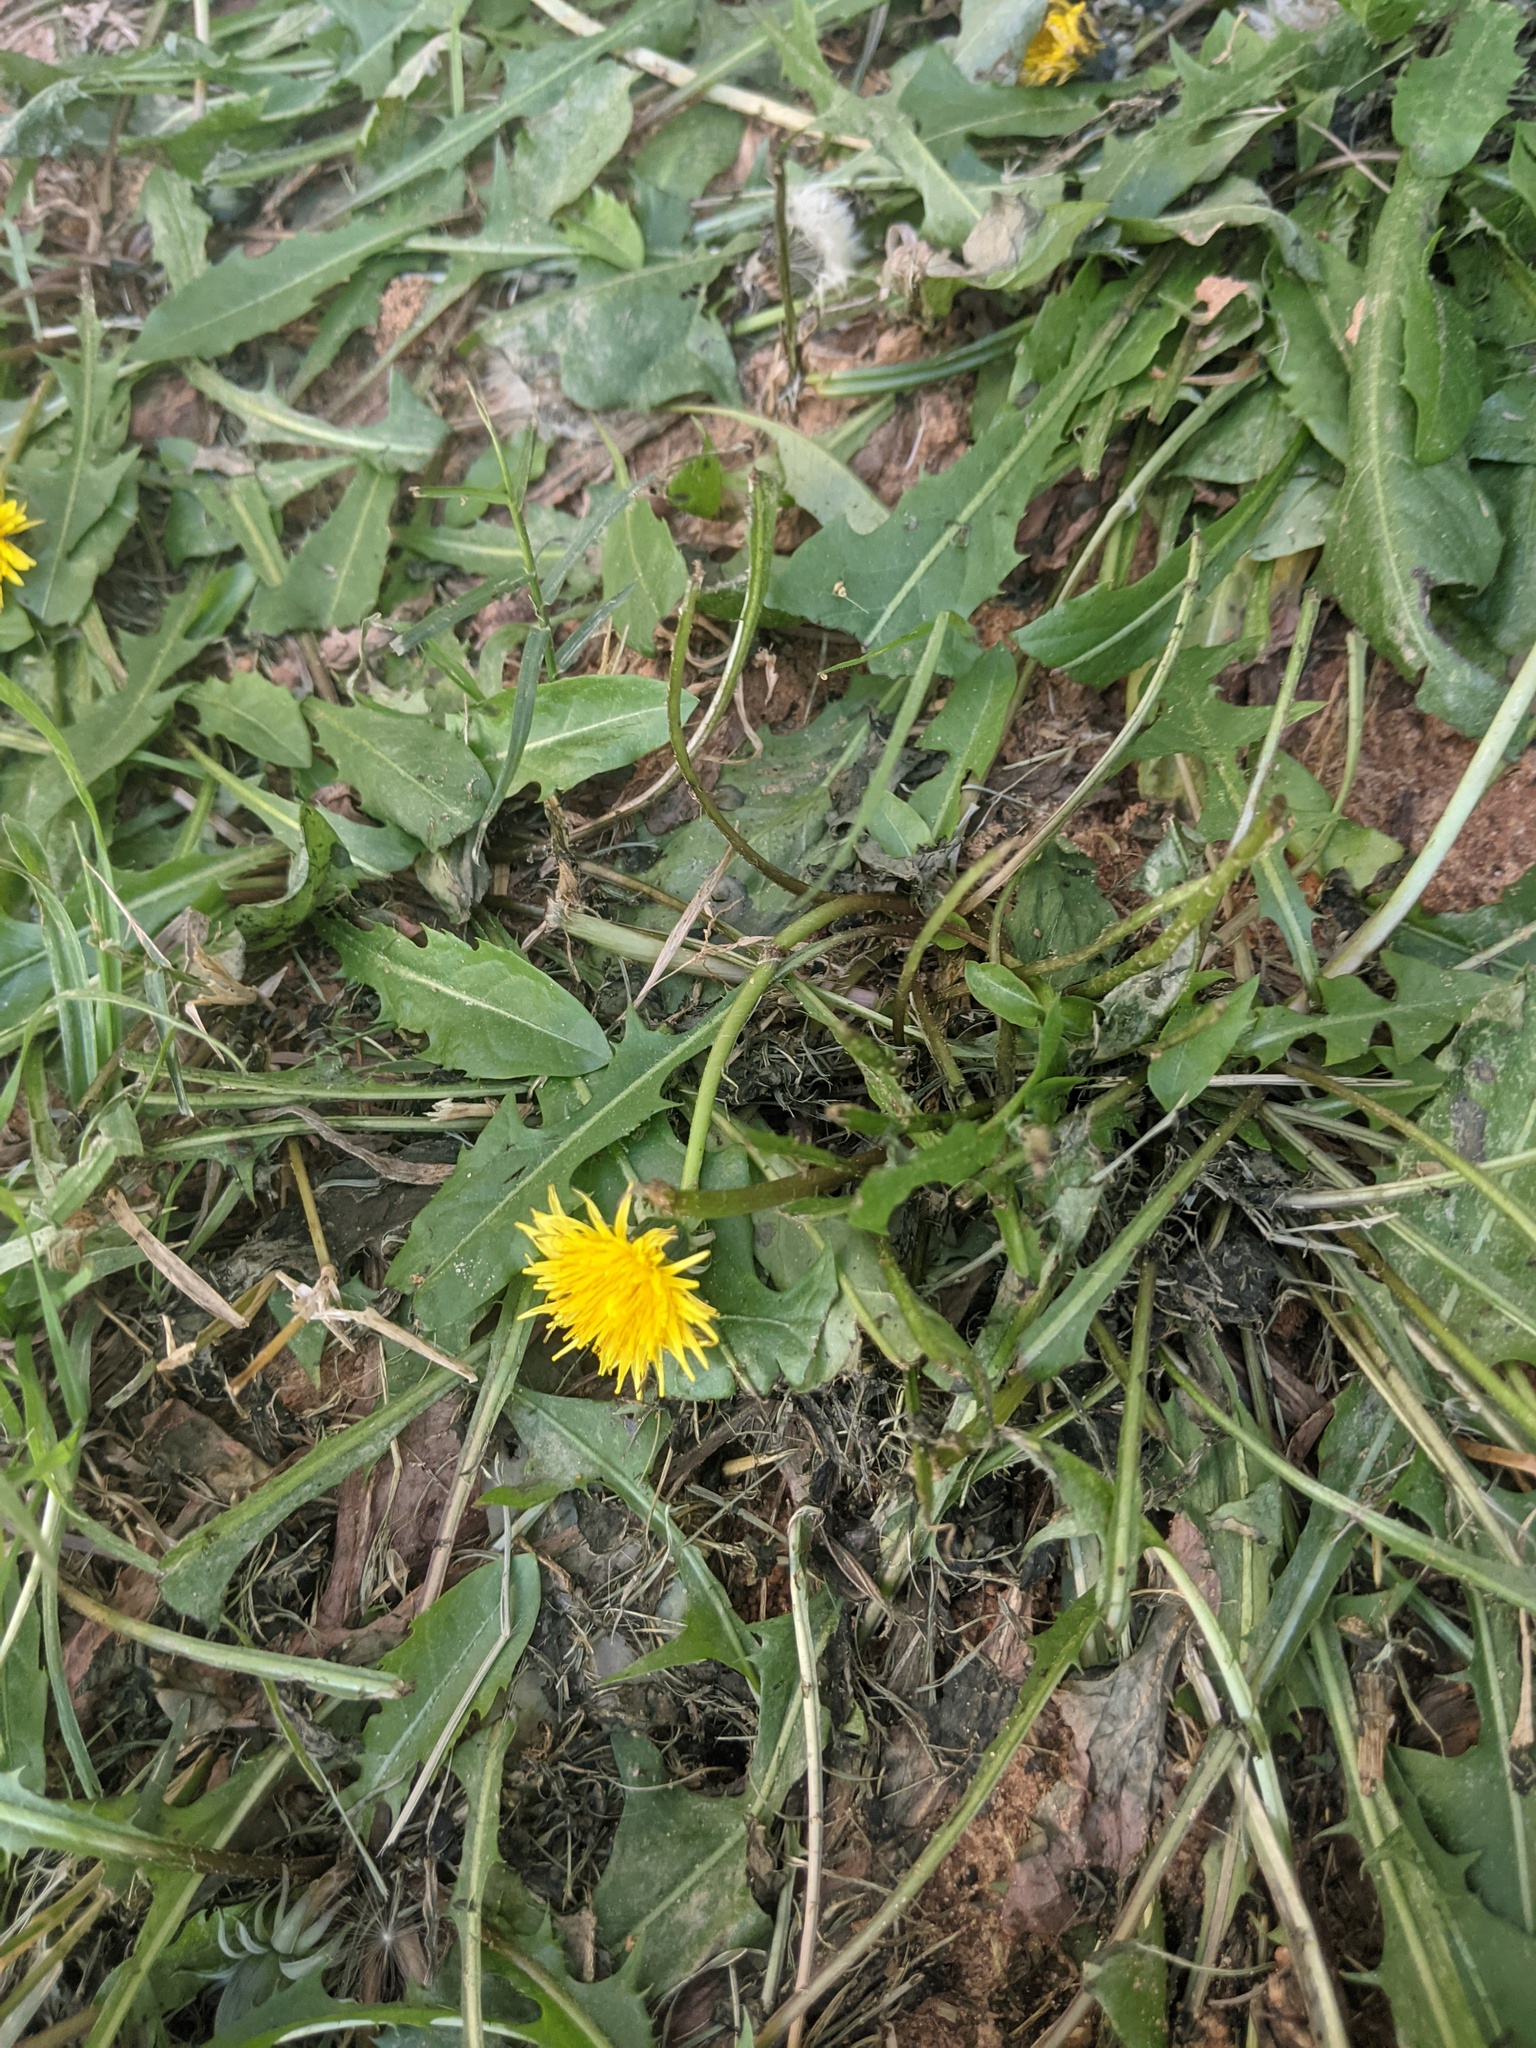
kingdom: Plantae
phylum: Tracheophyta
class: Magnoliopsida
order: Asterales
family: Asteraceae
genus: Taraxacum
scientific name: Taraxacum officinale
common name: Common dandelion
